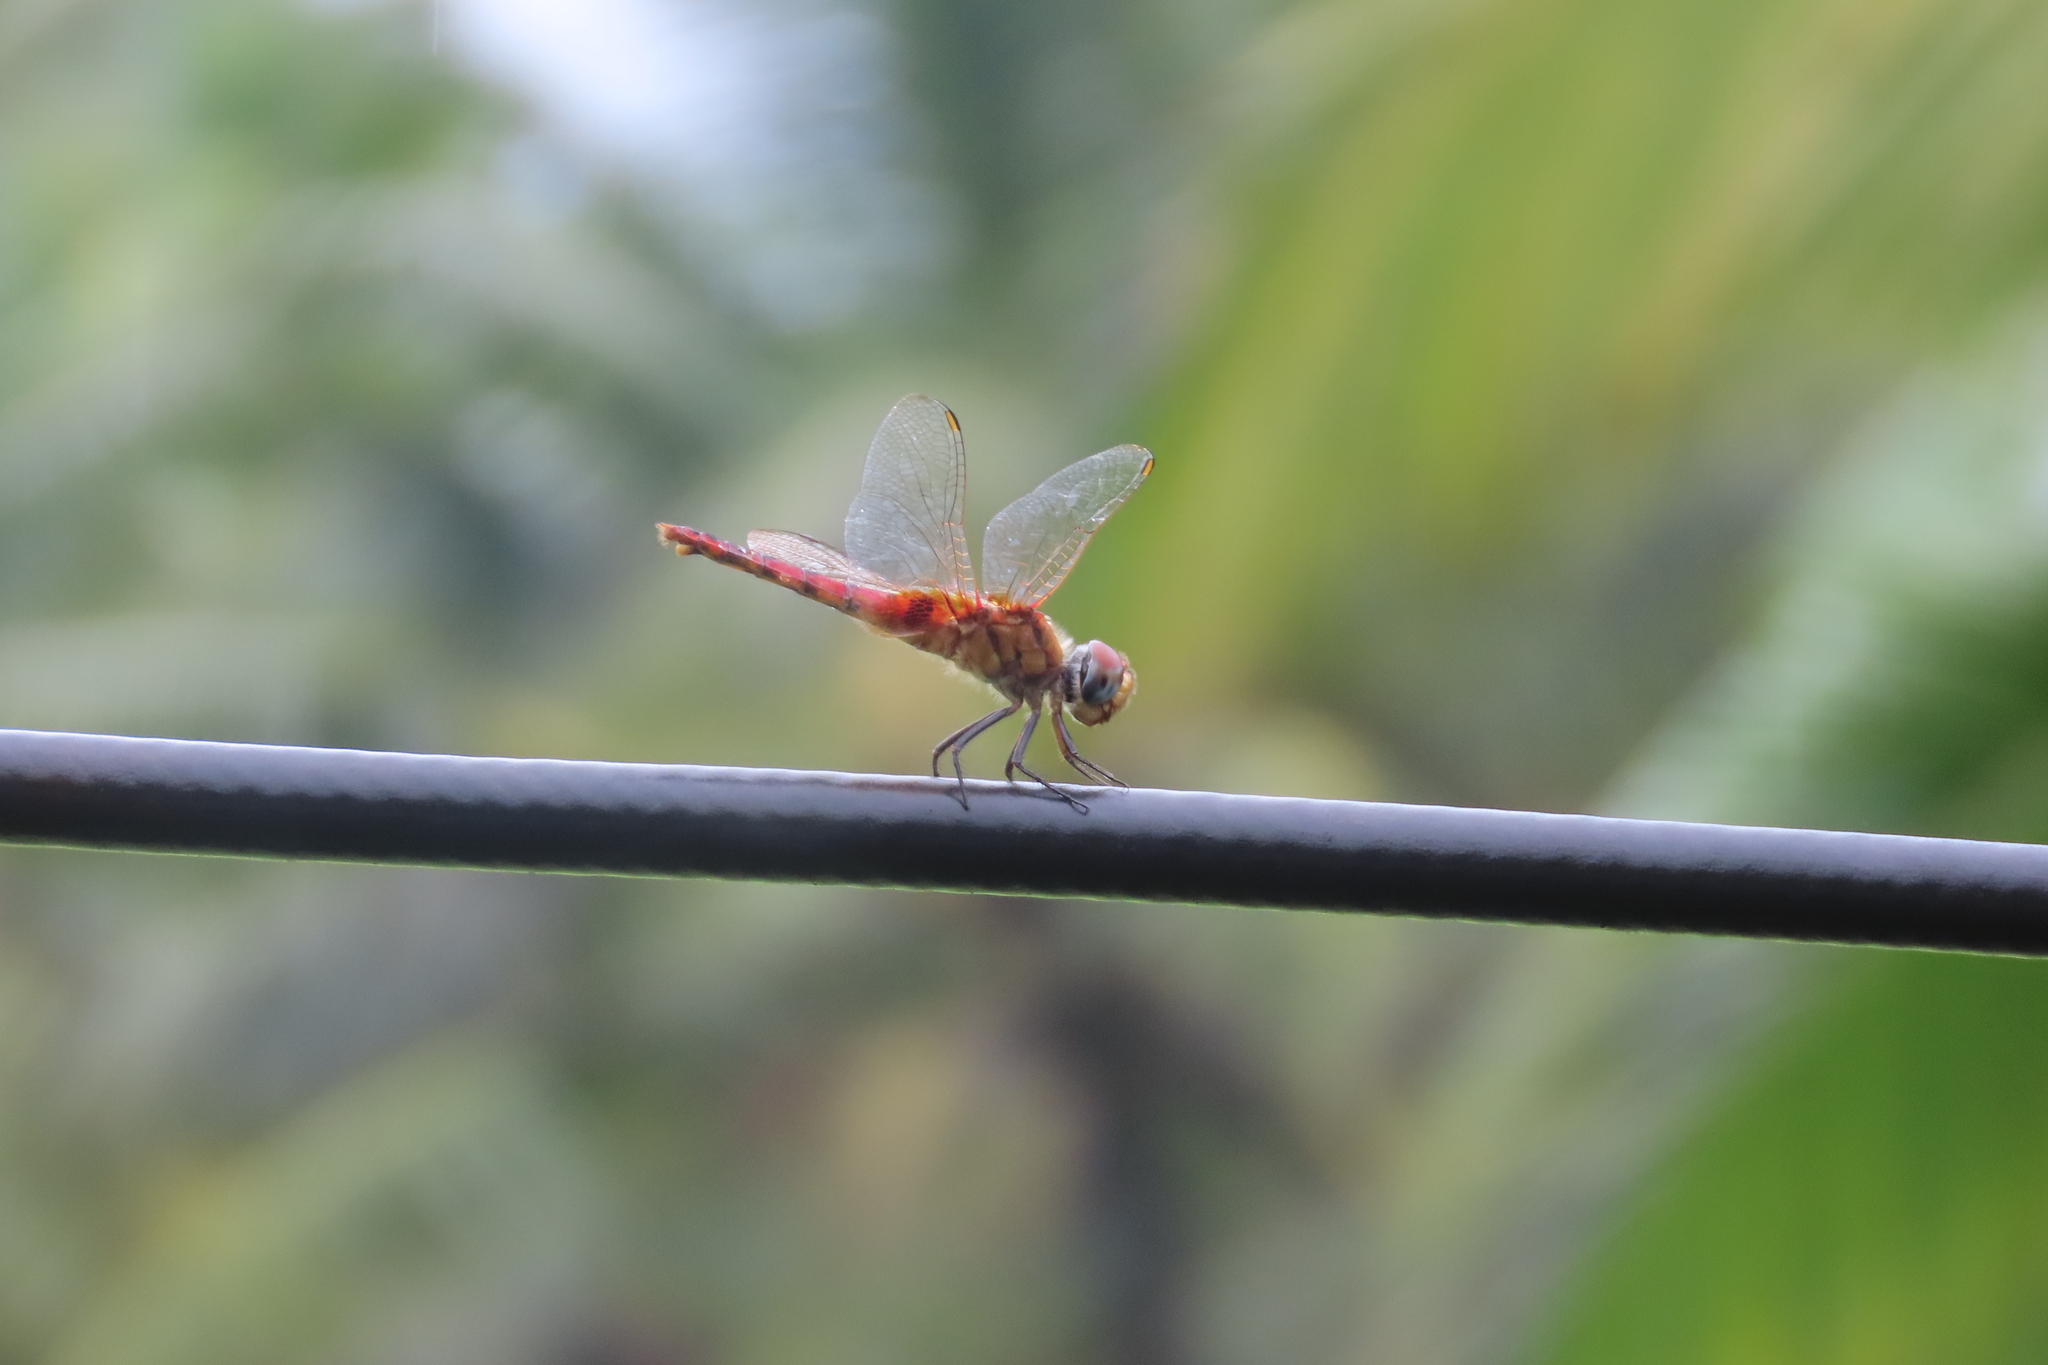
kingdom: Animalia
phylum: Arthropoda
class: Insecta
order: Odonata
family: Libellulidae
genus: Urothemis
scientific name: Urothemis signata
